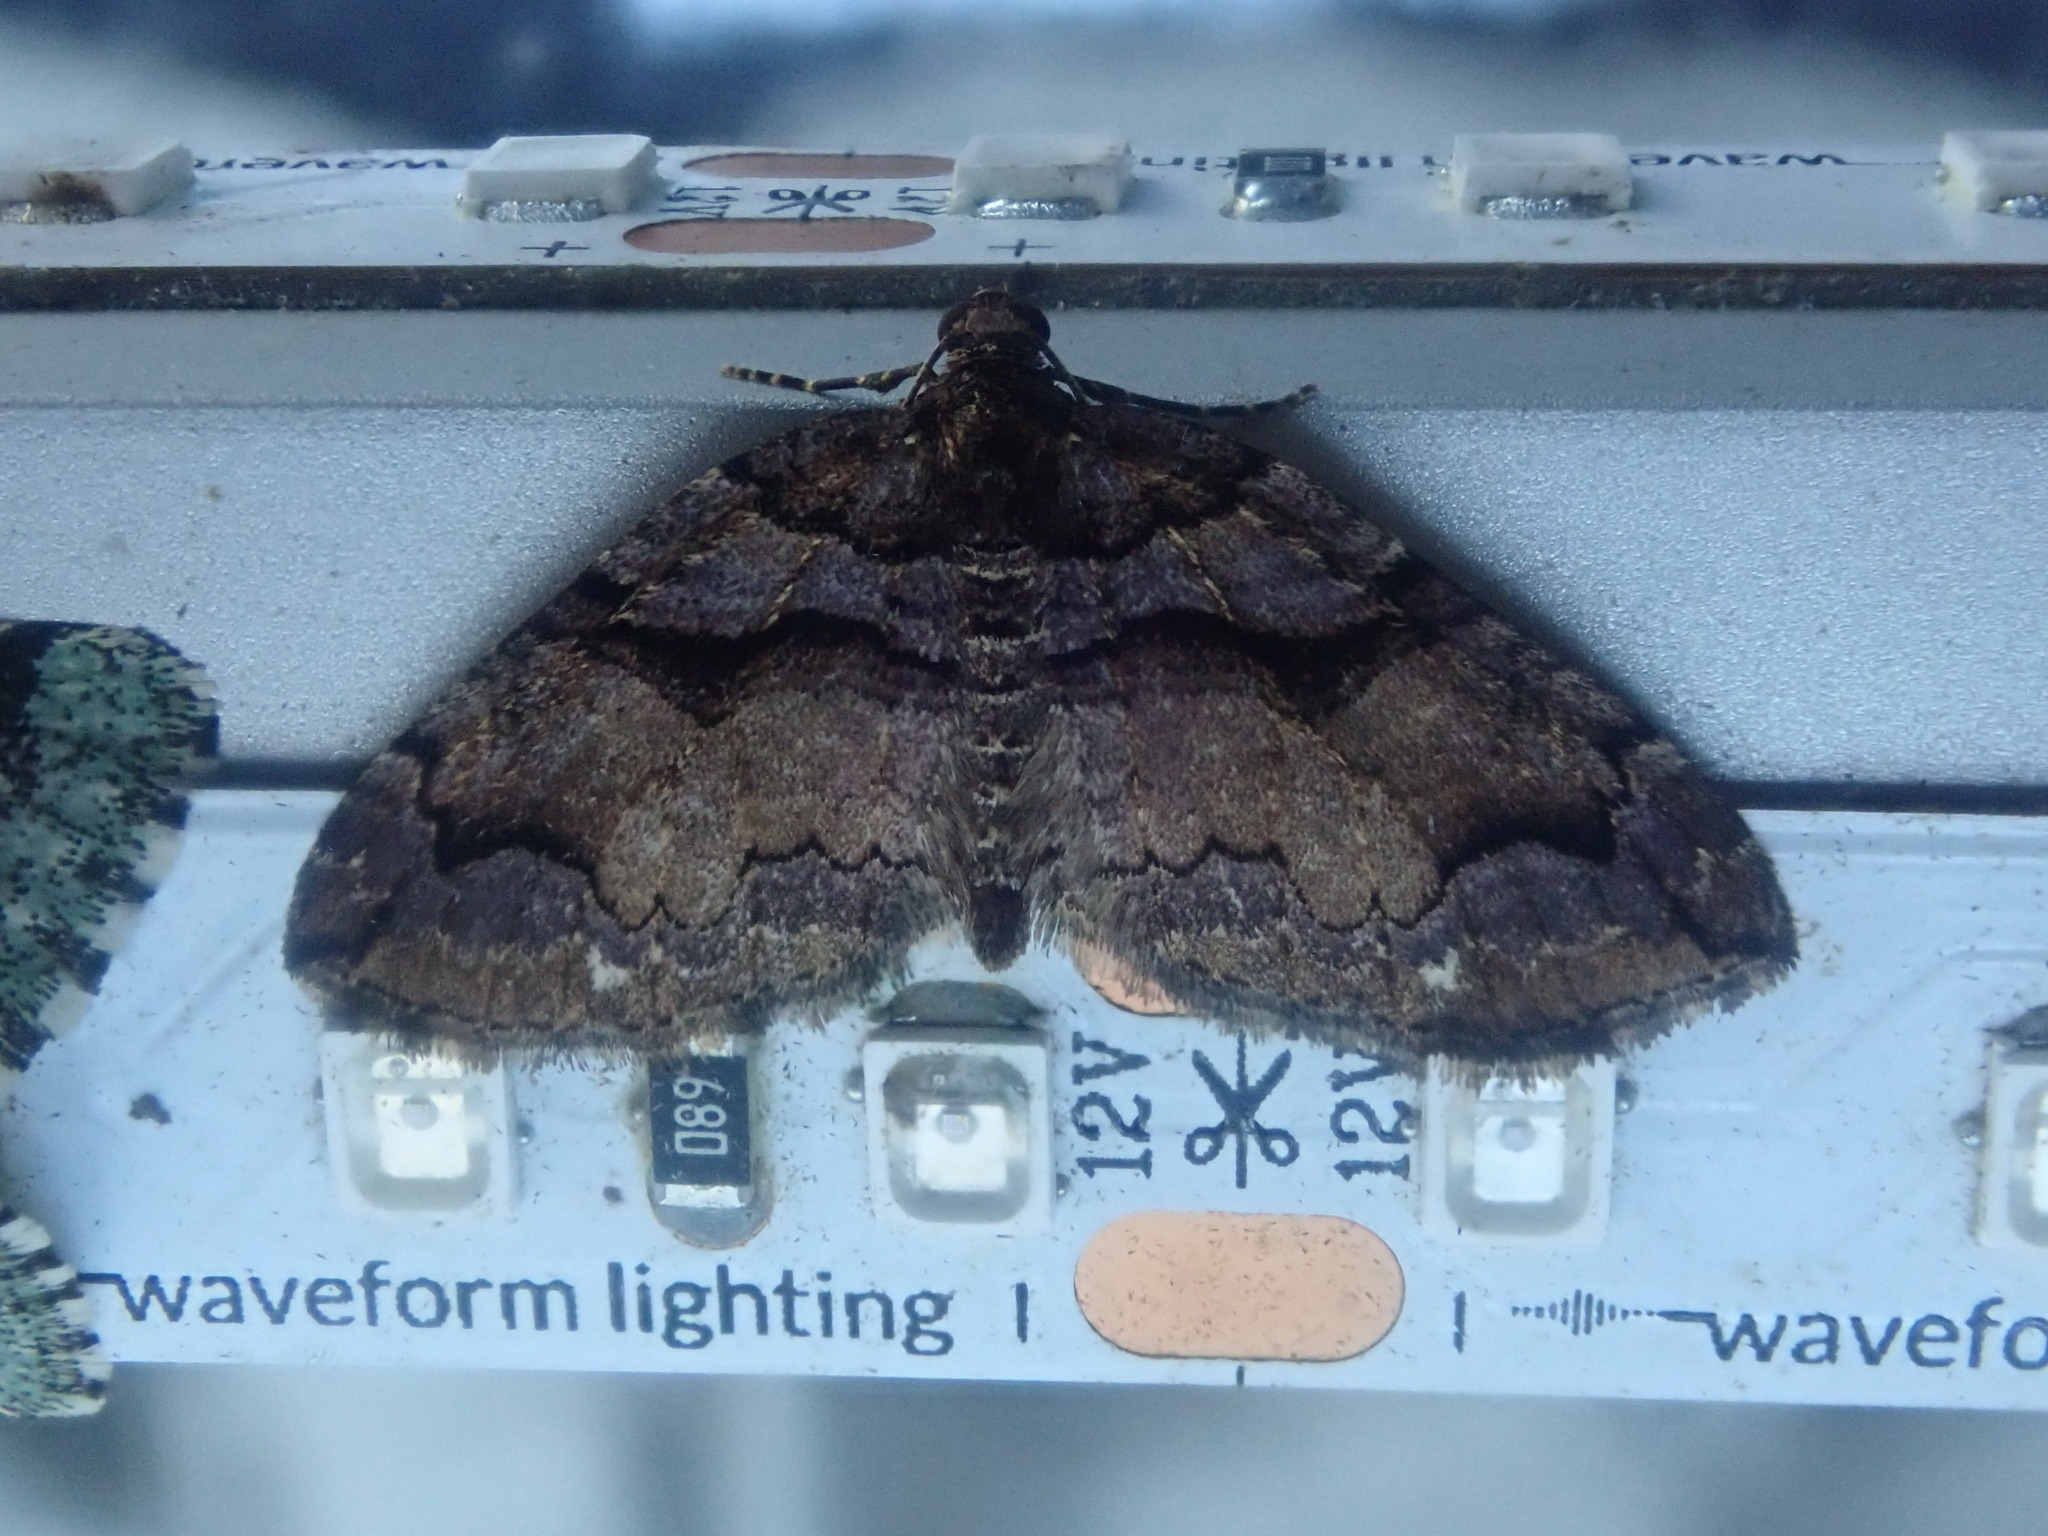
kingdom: Animalia
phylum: Arthropoda
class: Insecta
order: Lepidoptera
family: Geometridae
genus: Anticlea
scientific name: Anticlea vasiliata
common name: Variable carpet
